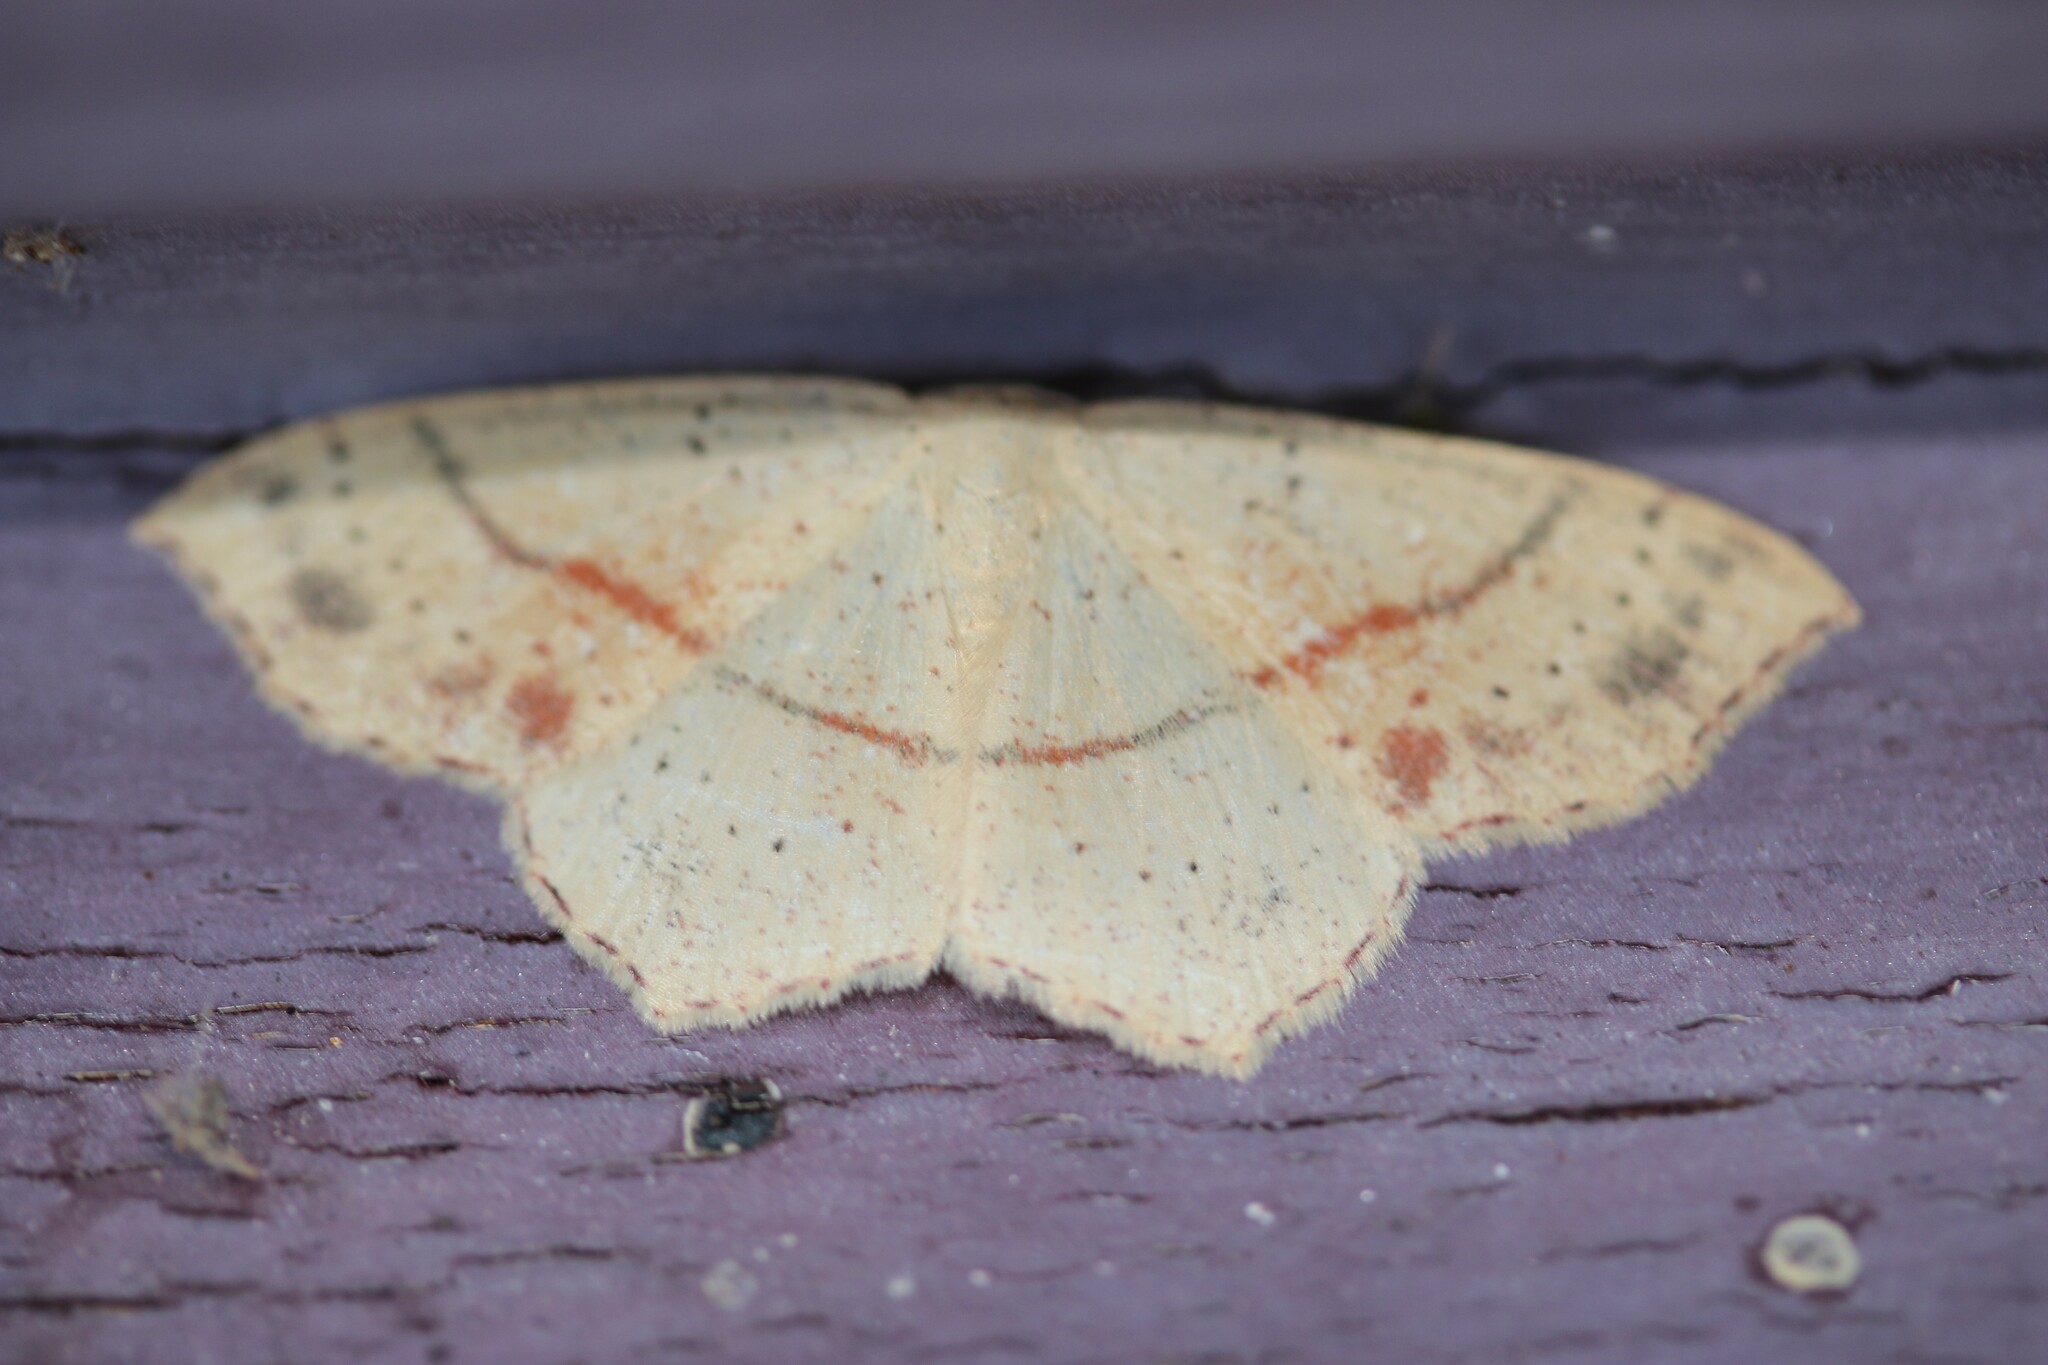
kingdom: Animalia
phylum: Arthropoda
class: Insecta
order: Lepidoptera
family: Geometridae
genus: Cyclophora
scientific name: Cyclophora punctaria
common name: Maiden's blush
